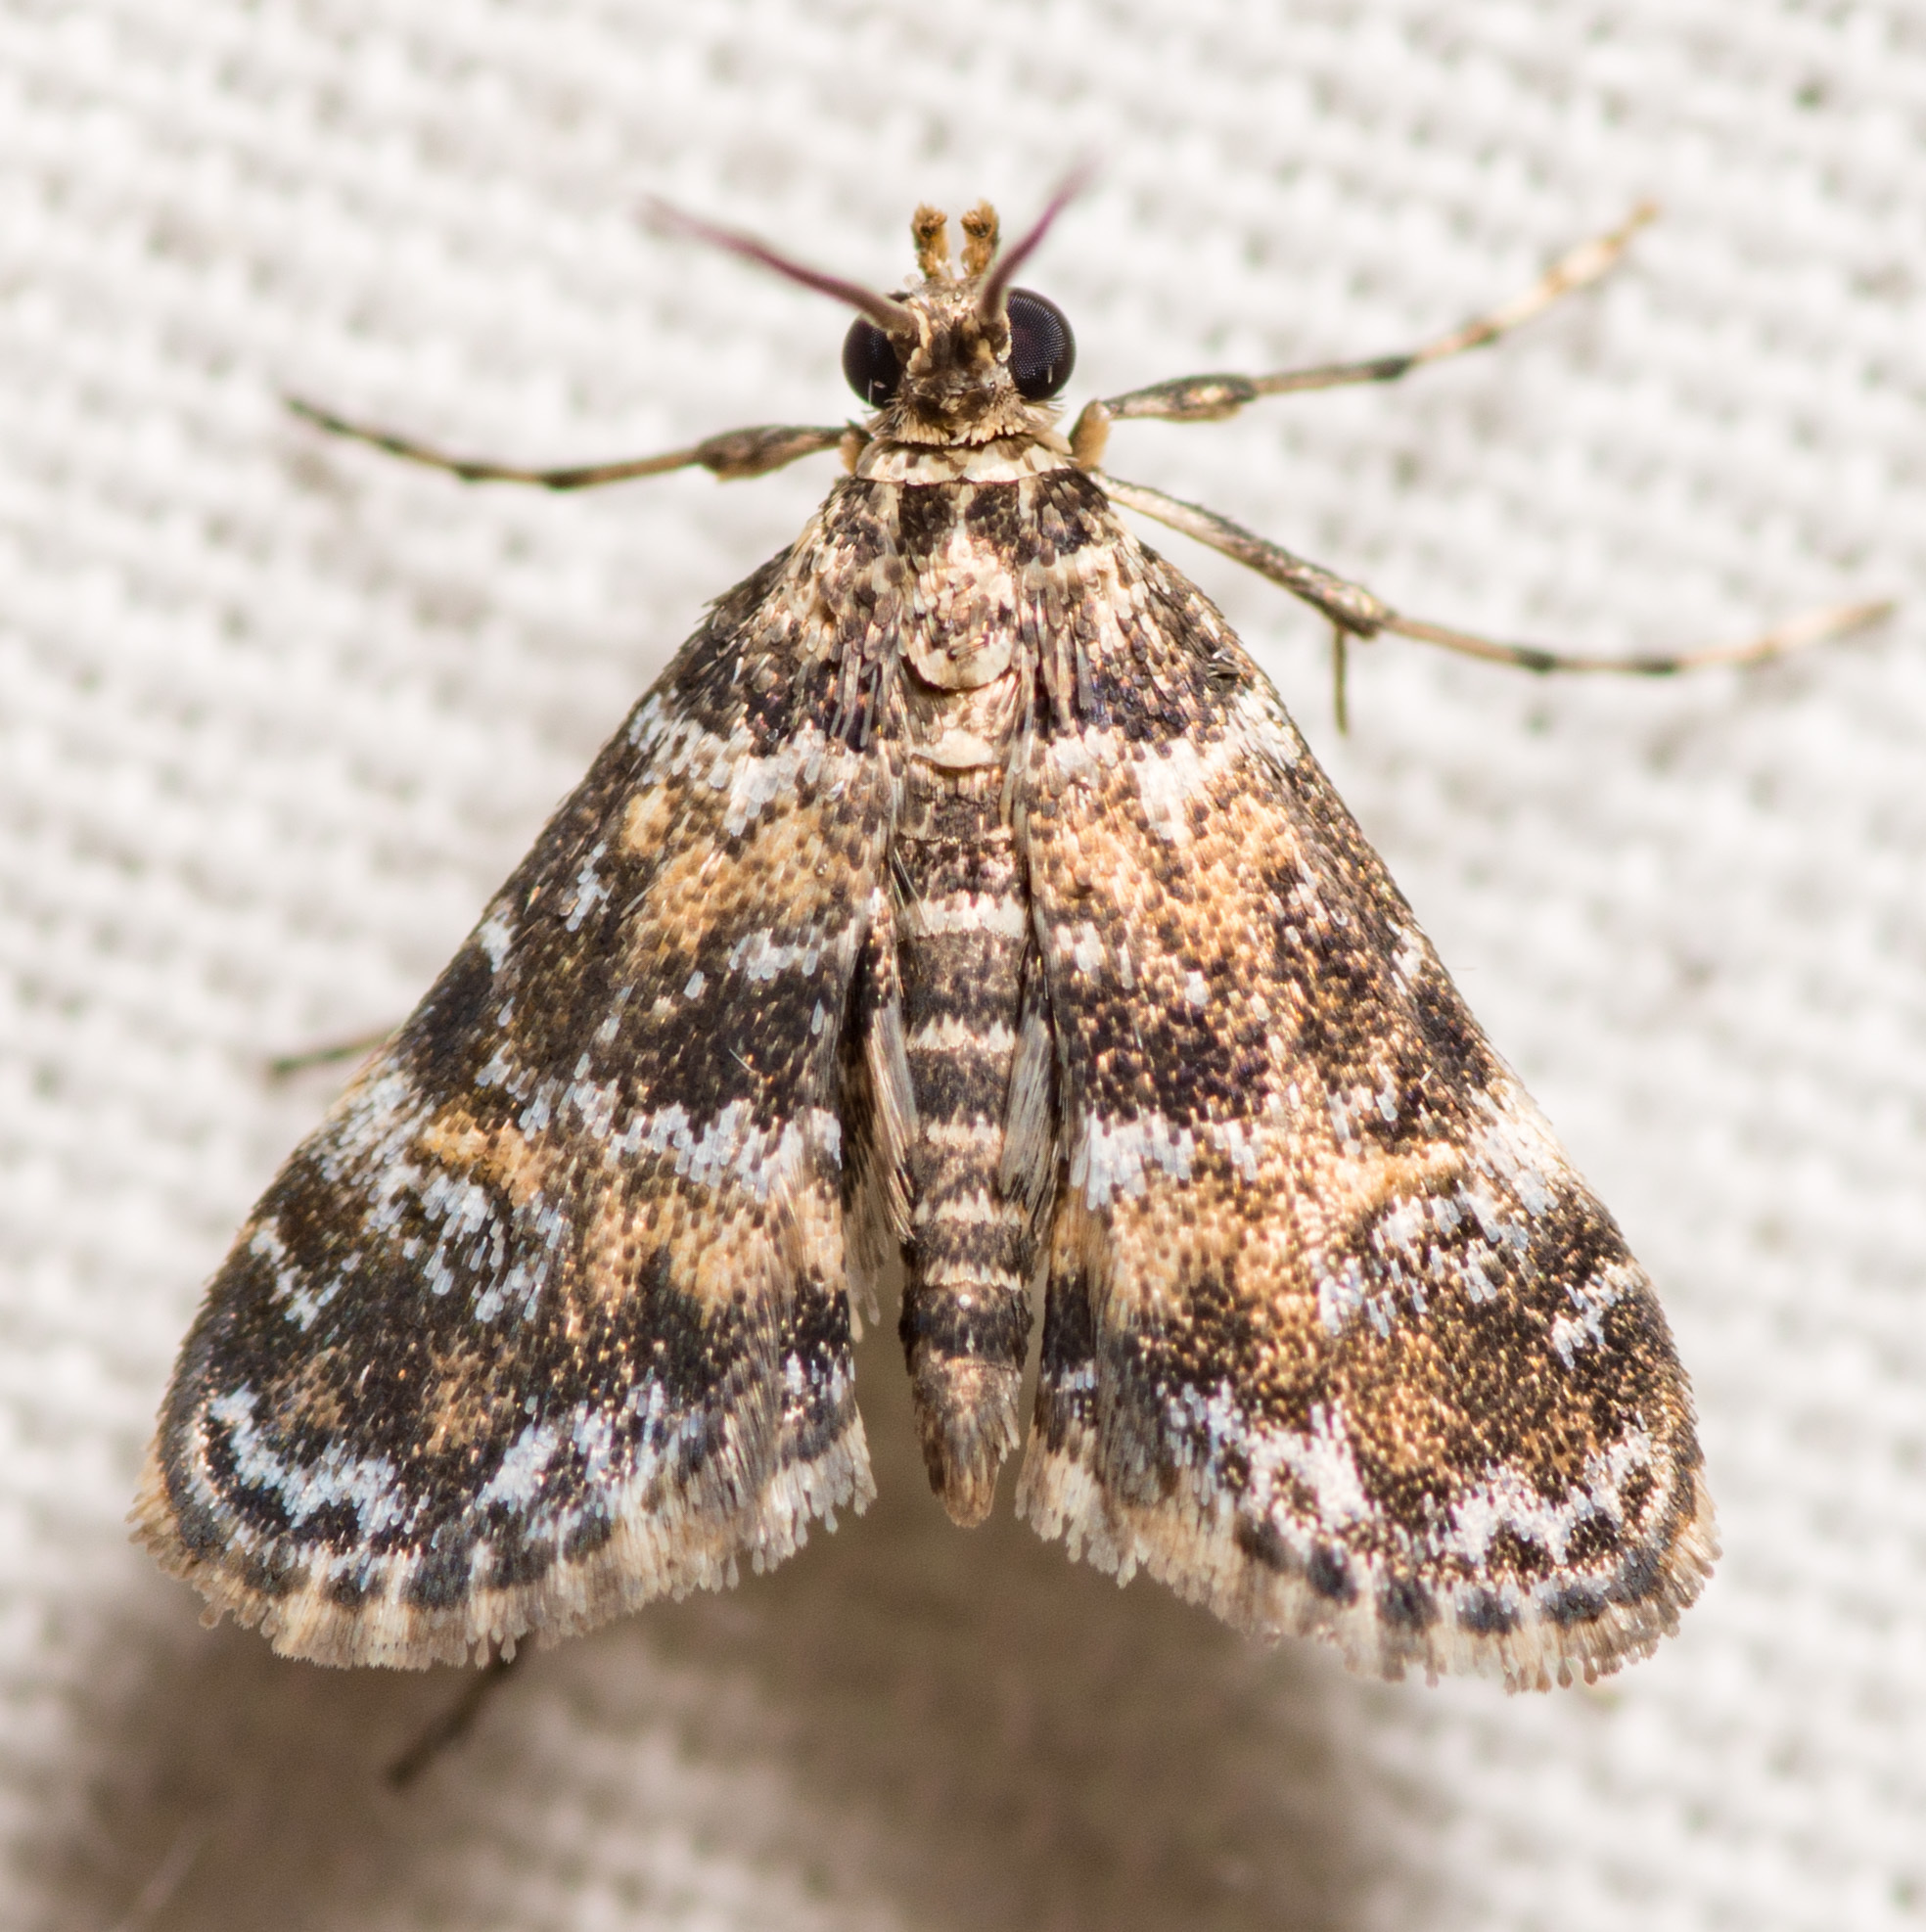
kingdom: Animalia
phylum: Arthropoda
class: Insecta
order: Lepidoptera
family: Crambidae
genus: Elophila
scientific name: Elophila obliteralis
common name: Waterlily leafcutter moth
